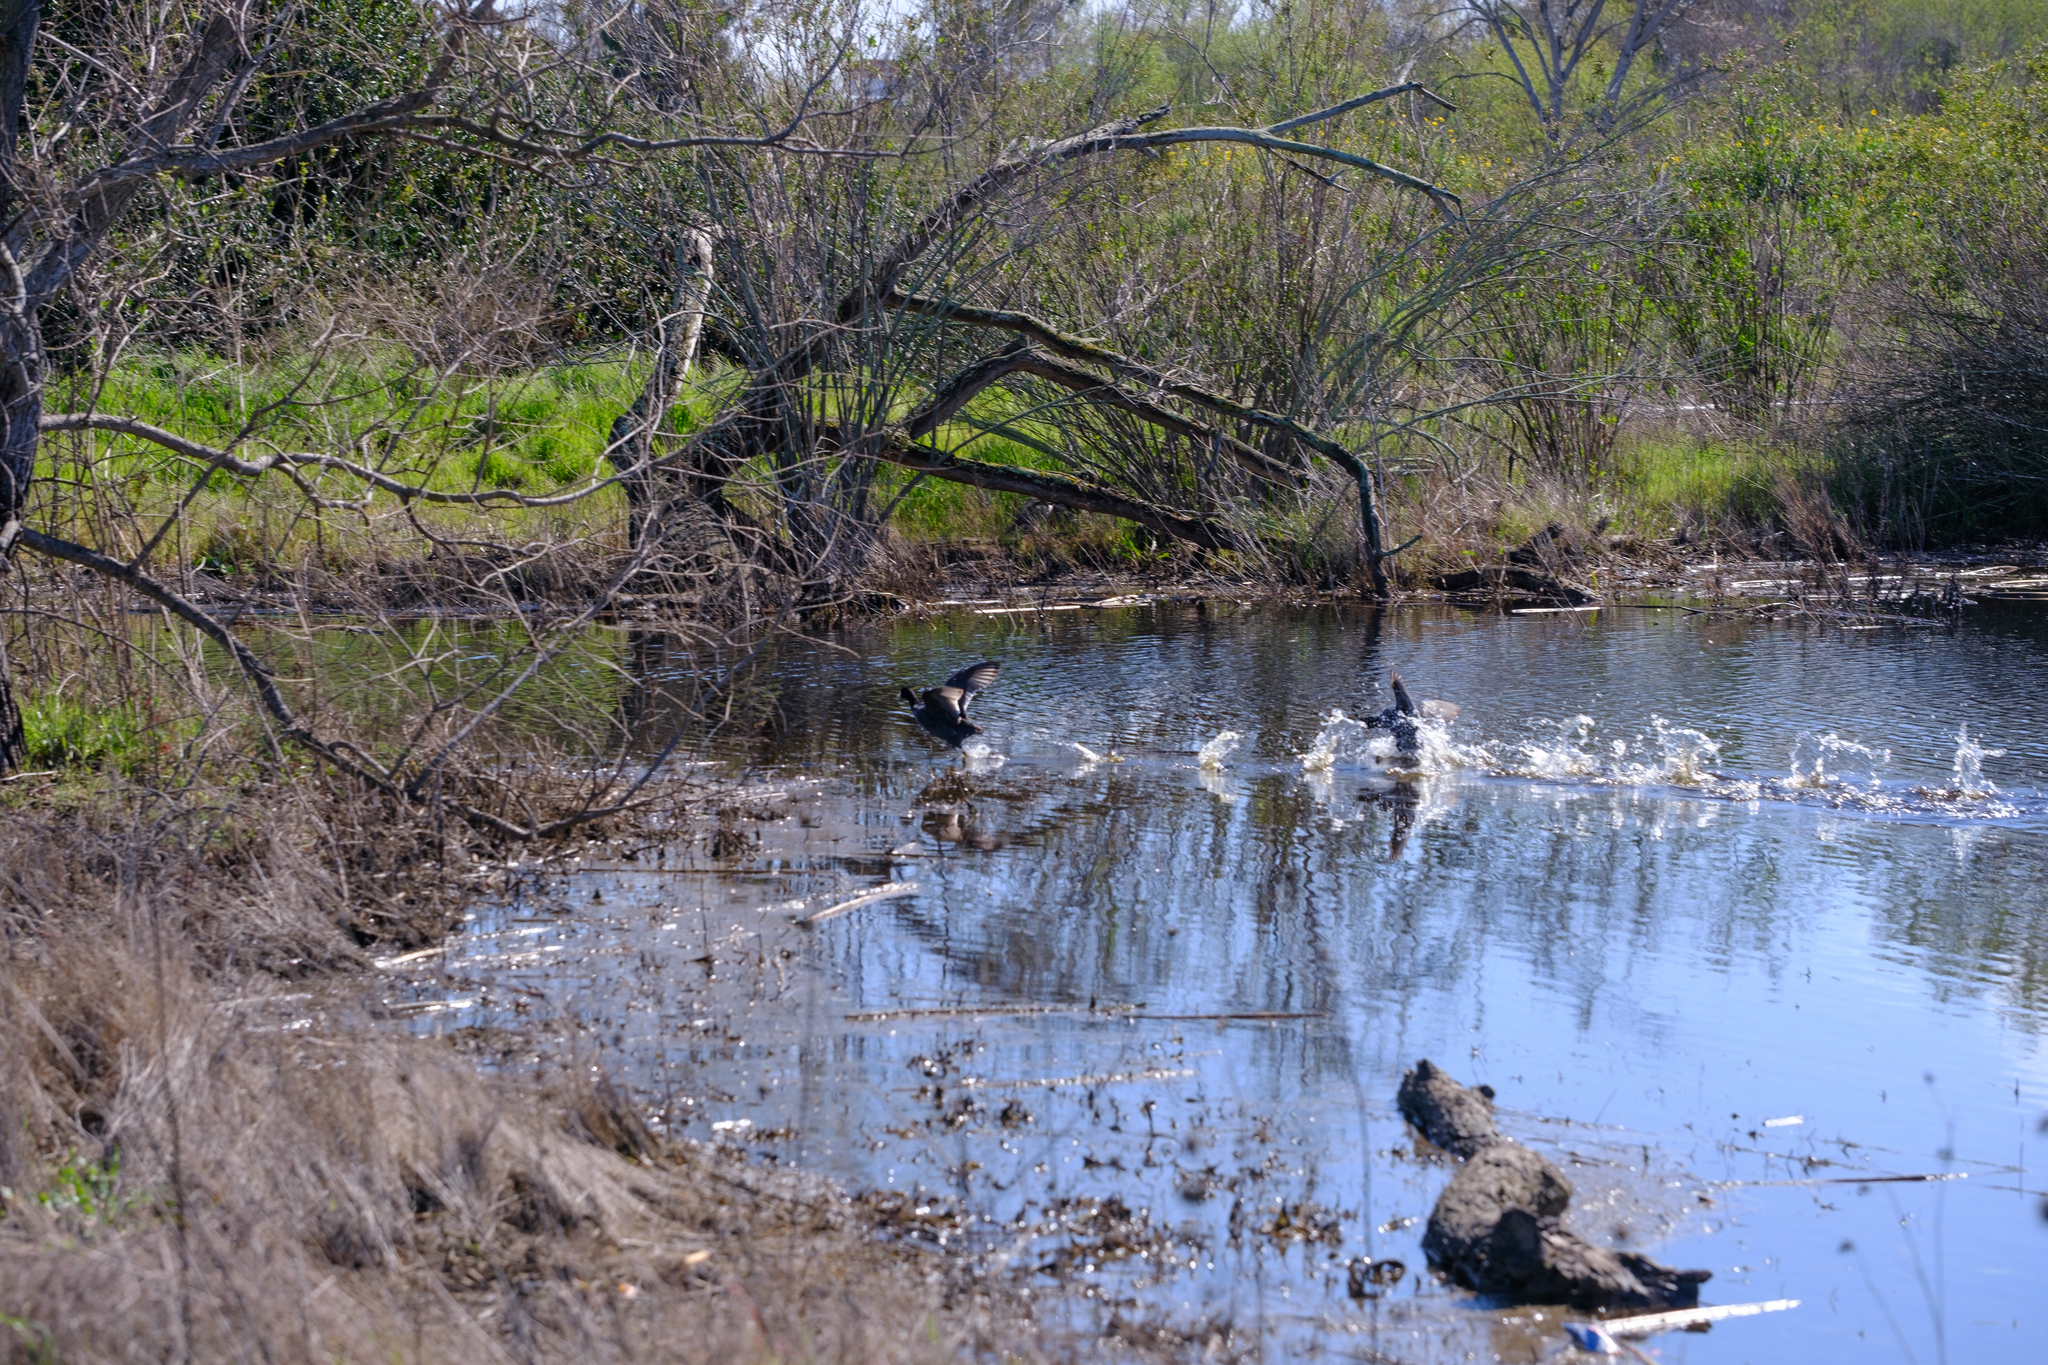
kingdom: Animalia
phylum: Chordata
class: Aves
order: Gruiformes
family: Rallidae
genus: Fulica
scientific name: Fulica americana
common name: American coot
